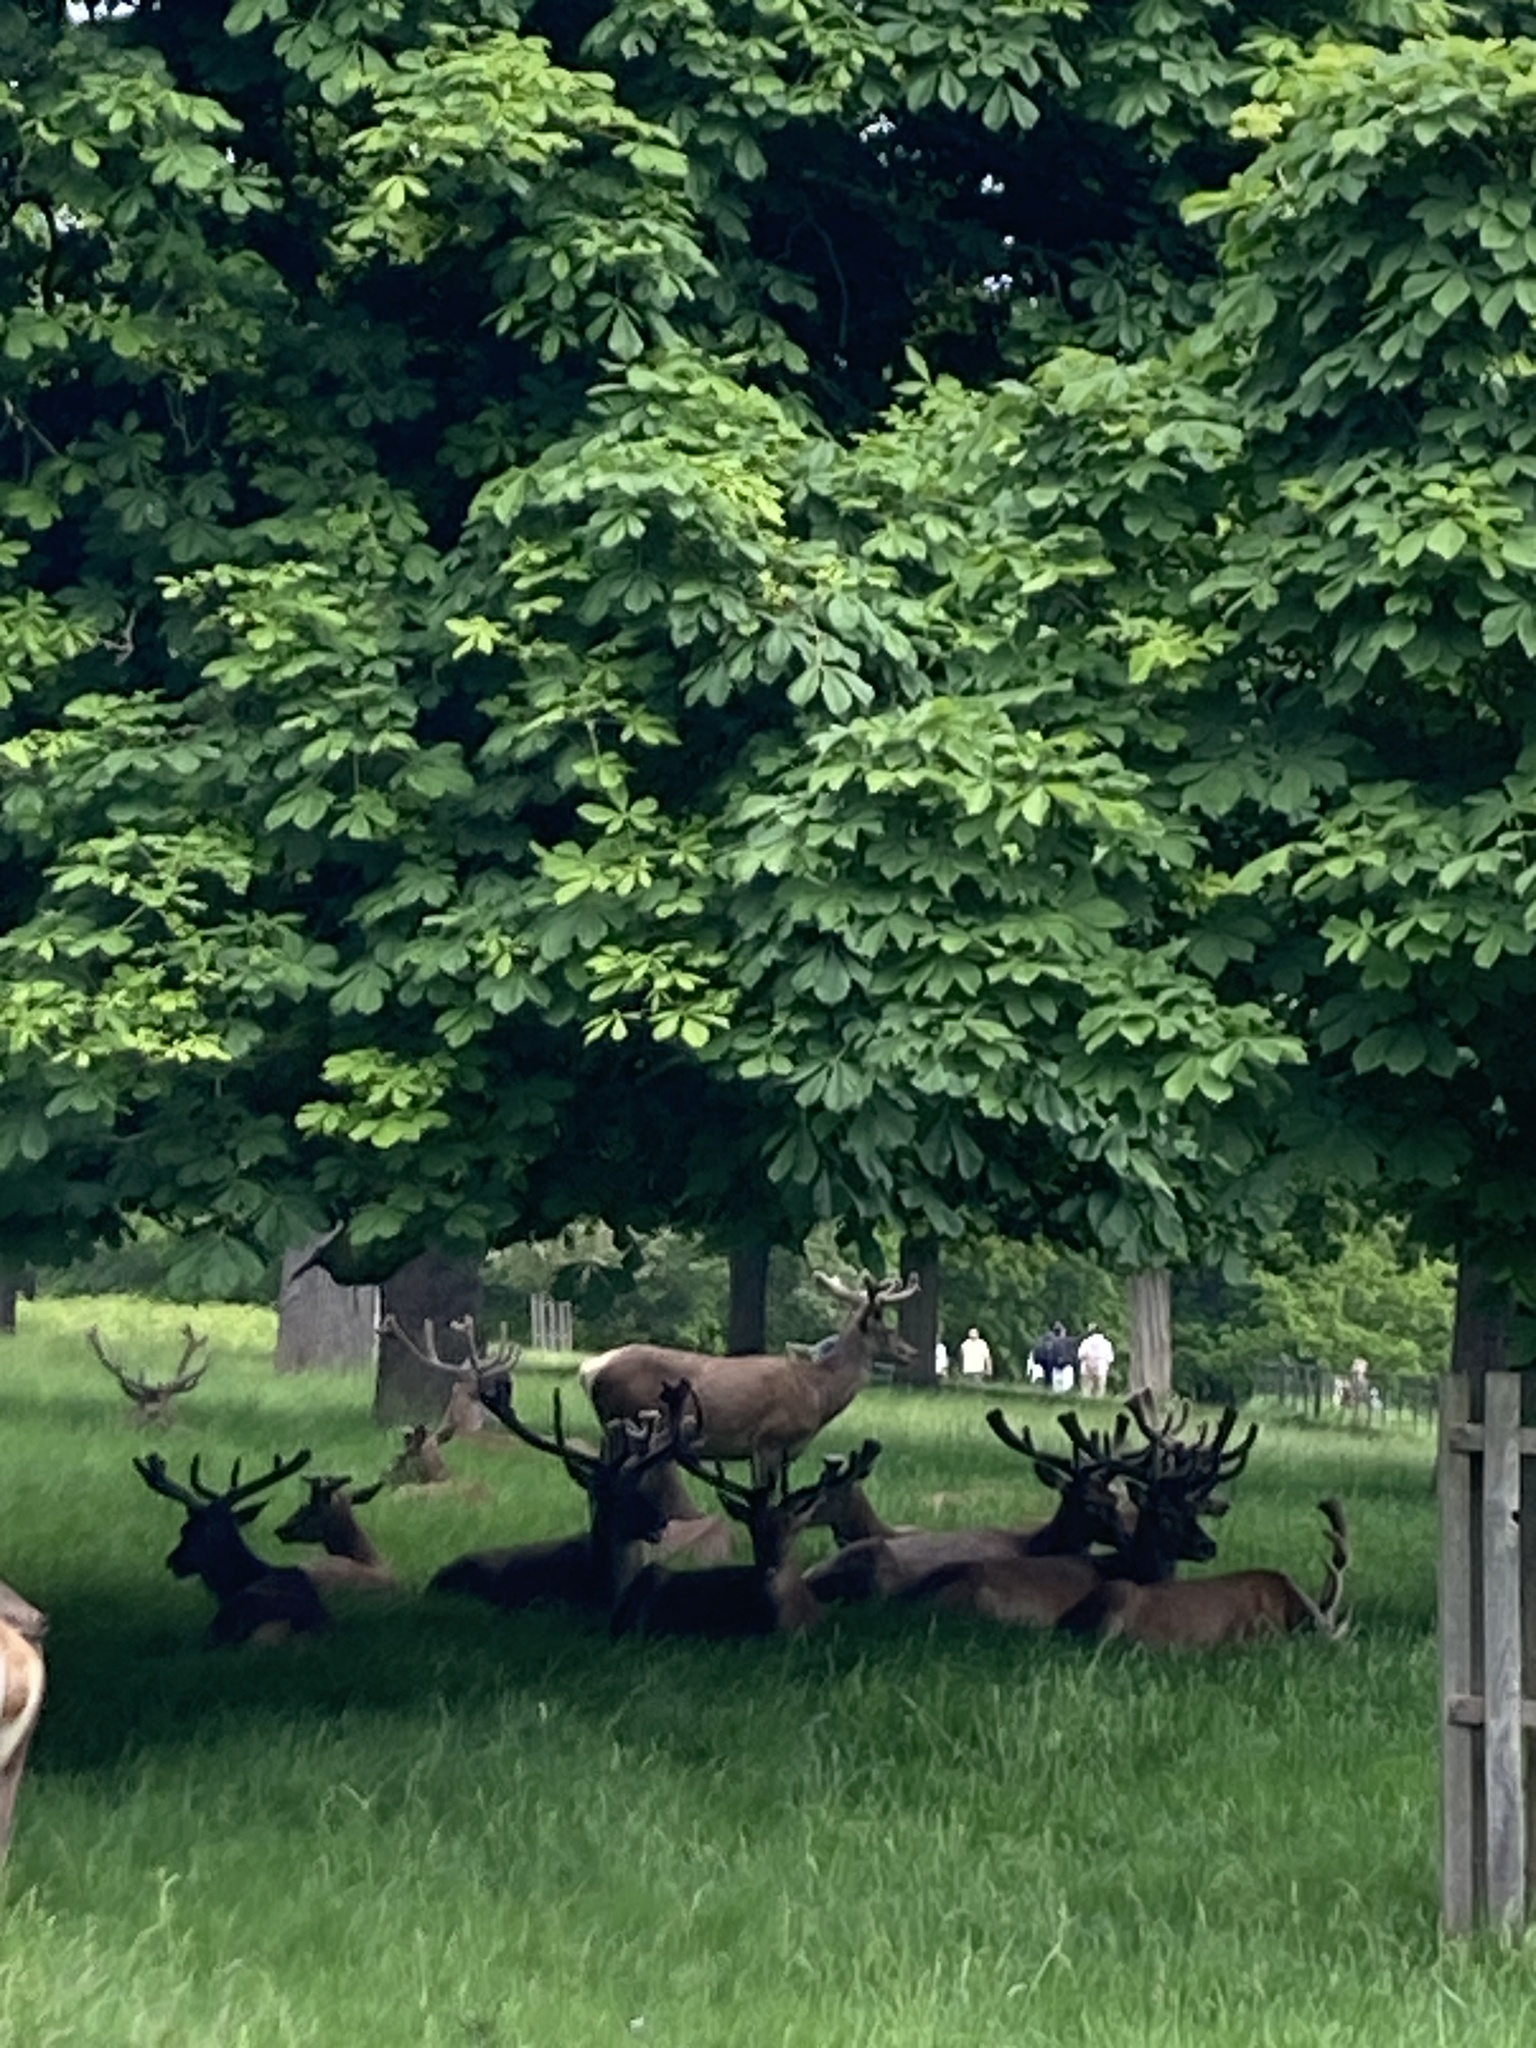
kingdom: Animalia
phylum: Chordata
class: Mammalia
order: Artiodactyla
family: Cervidae
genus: Cervus
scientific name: Cervus elaphus
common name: Red deer
